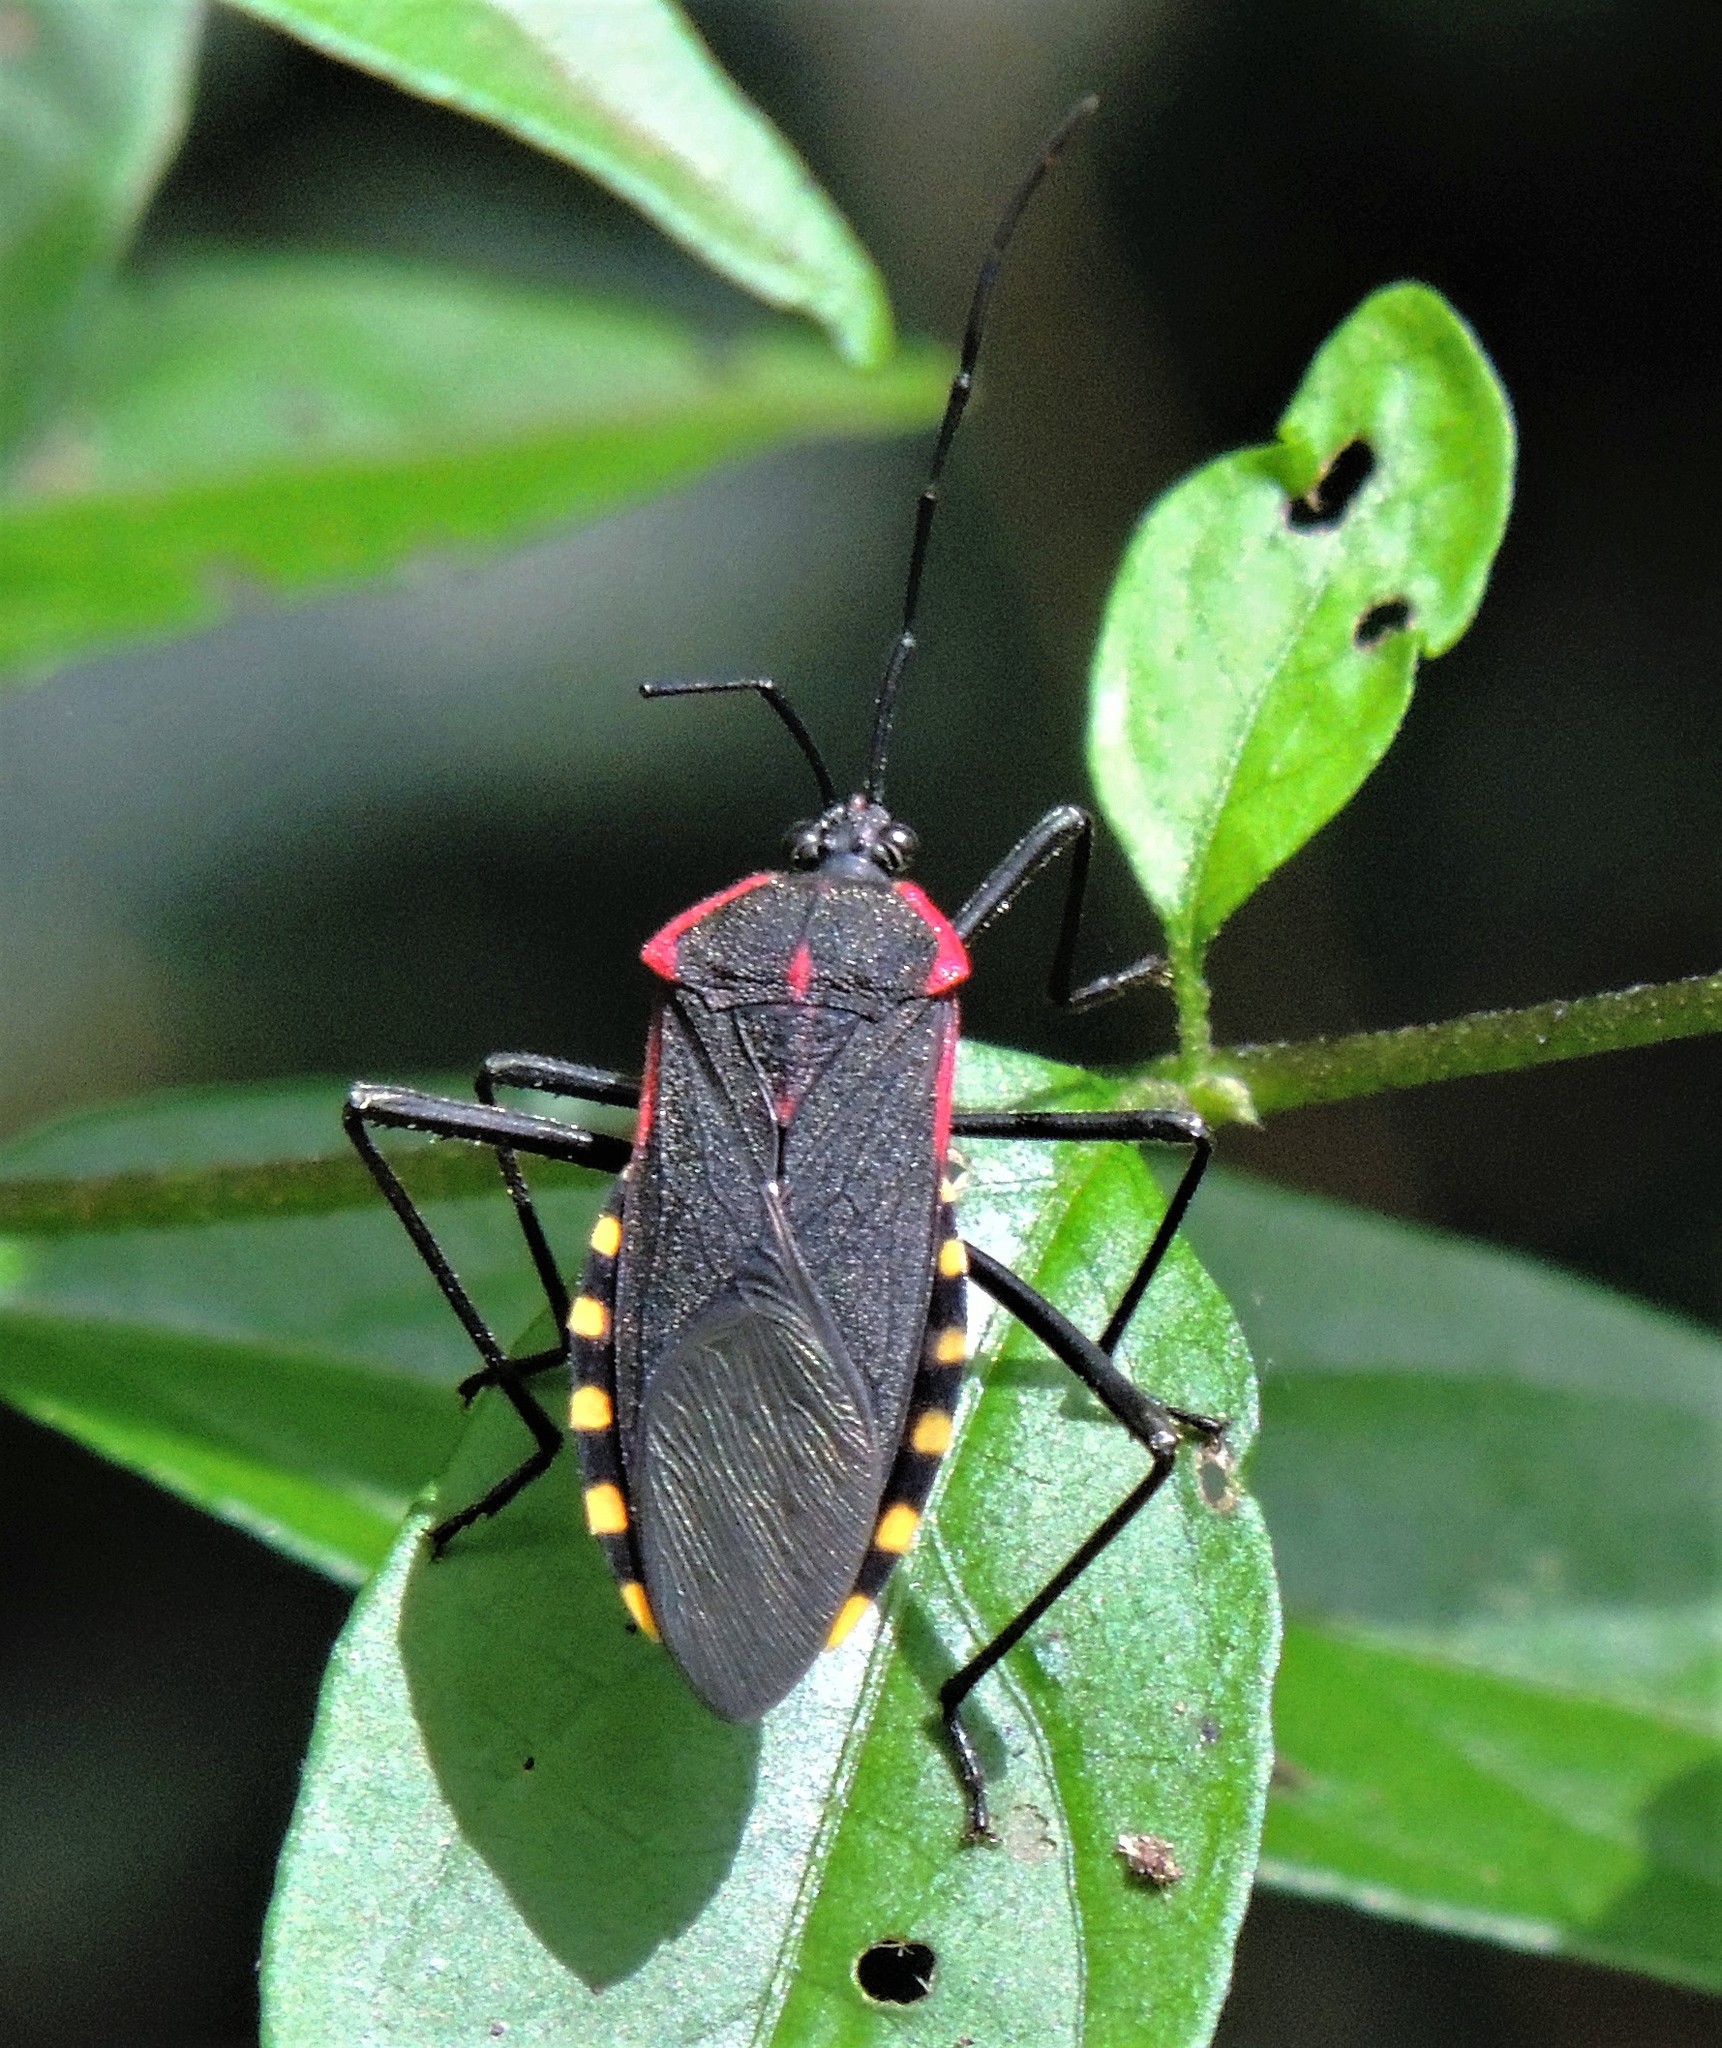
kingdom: Animalia
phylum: Arthropoda
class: Insecta
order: Hemiptera
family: Coreidae
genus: Laminiceps
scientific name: Laminiceps megaera
